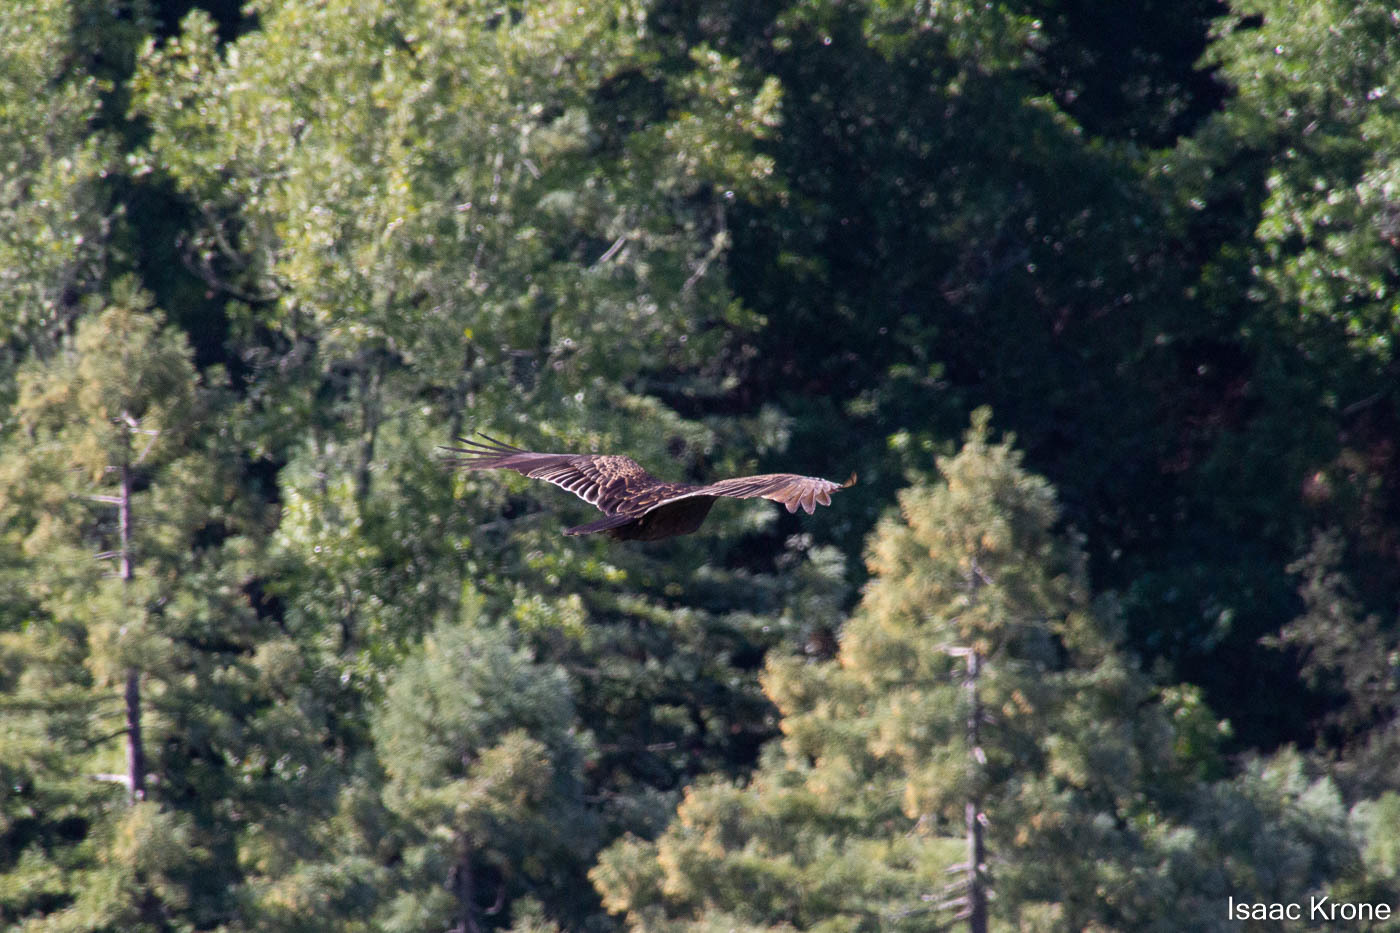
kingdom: Animalia
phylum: Chordata
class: Aves
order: Accipitriformes
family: Cathartidae
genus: Cathartes
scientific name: Cathartes aura
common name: Turkey vulture
